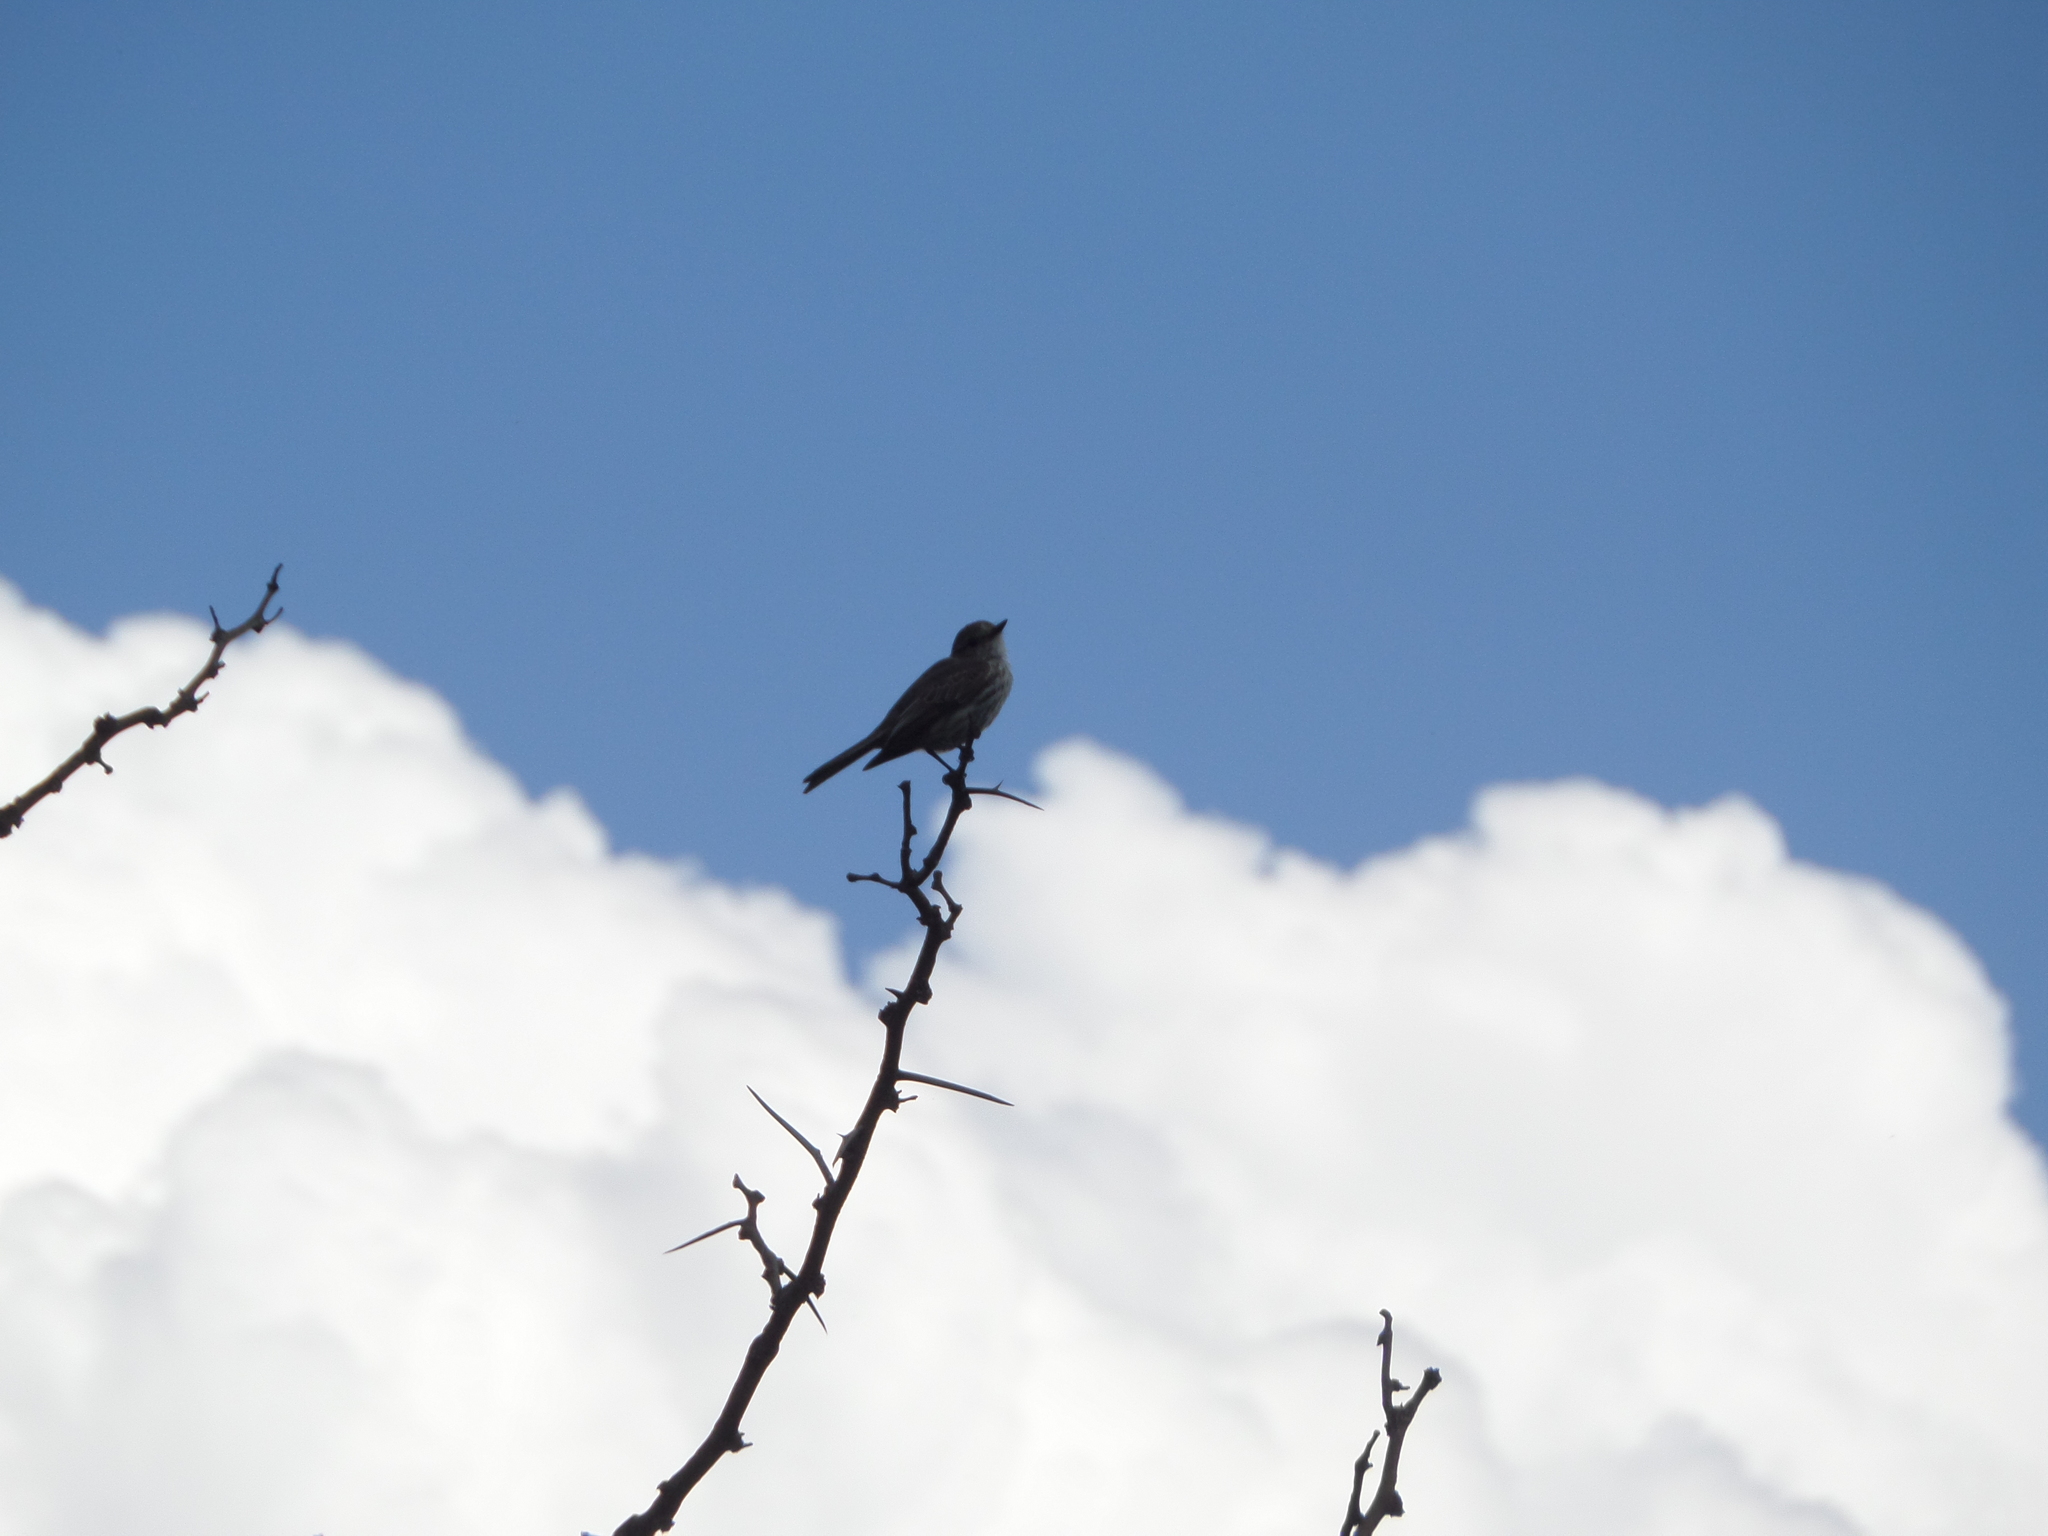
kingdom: Animalia
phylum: Chordata
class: Aves
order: Passeriformes
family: Tyrannidae
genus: Pyrocephalus
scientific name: Pyrocephalus rubinus
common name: Vermilion flycatcher
